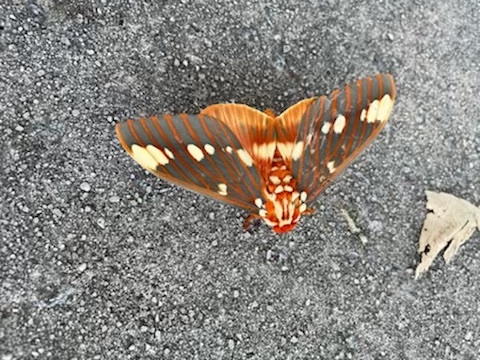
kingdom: Animalia
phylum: Arthropoda
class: Insecta
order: Lepidoptera
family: Saturniidae
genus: Citheronia
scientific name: Citheronia regalis
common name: Hickory horned devil
